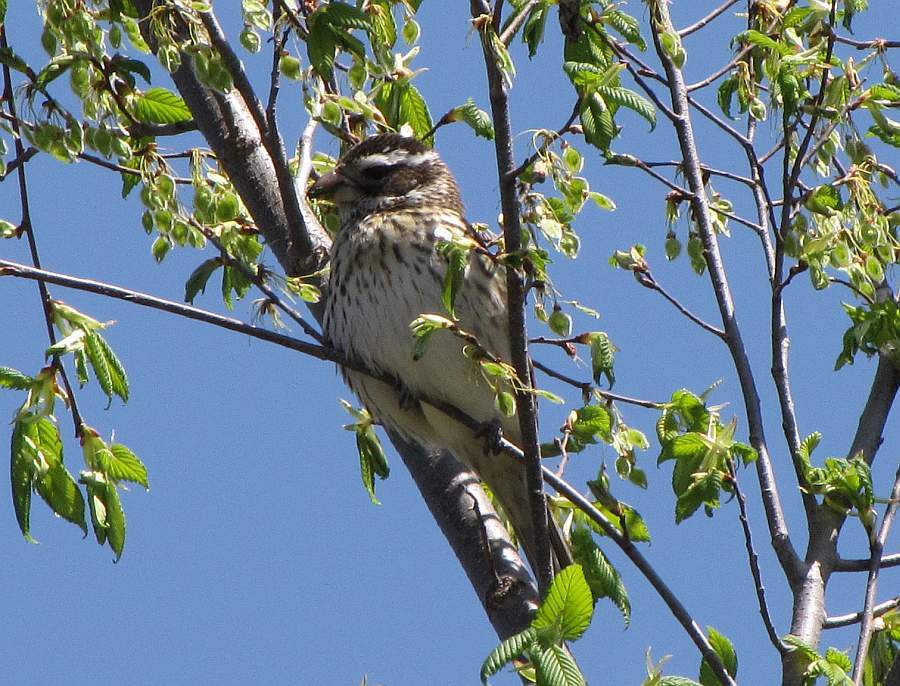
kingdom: Animalia
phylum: Chordata
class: Aves
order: Passeriformes
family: Cardinalidae
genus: Pheucticus
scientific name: Pheucticus ludovicianus
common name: Rose-breasted grosbeak
